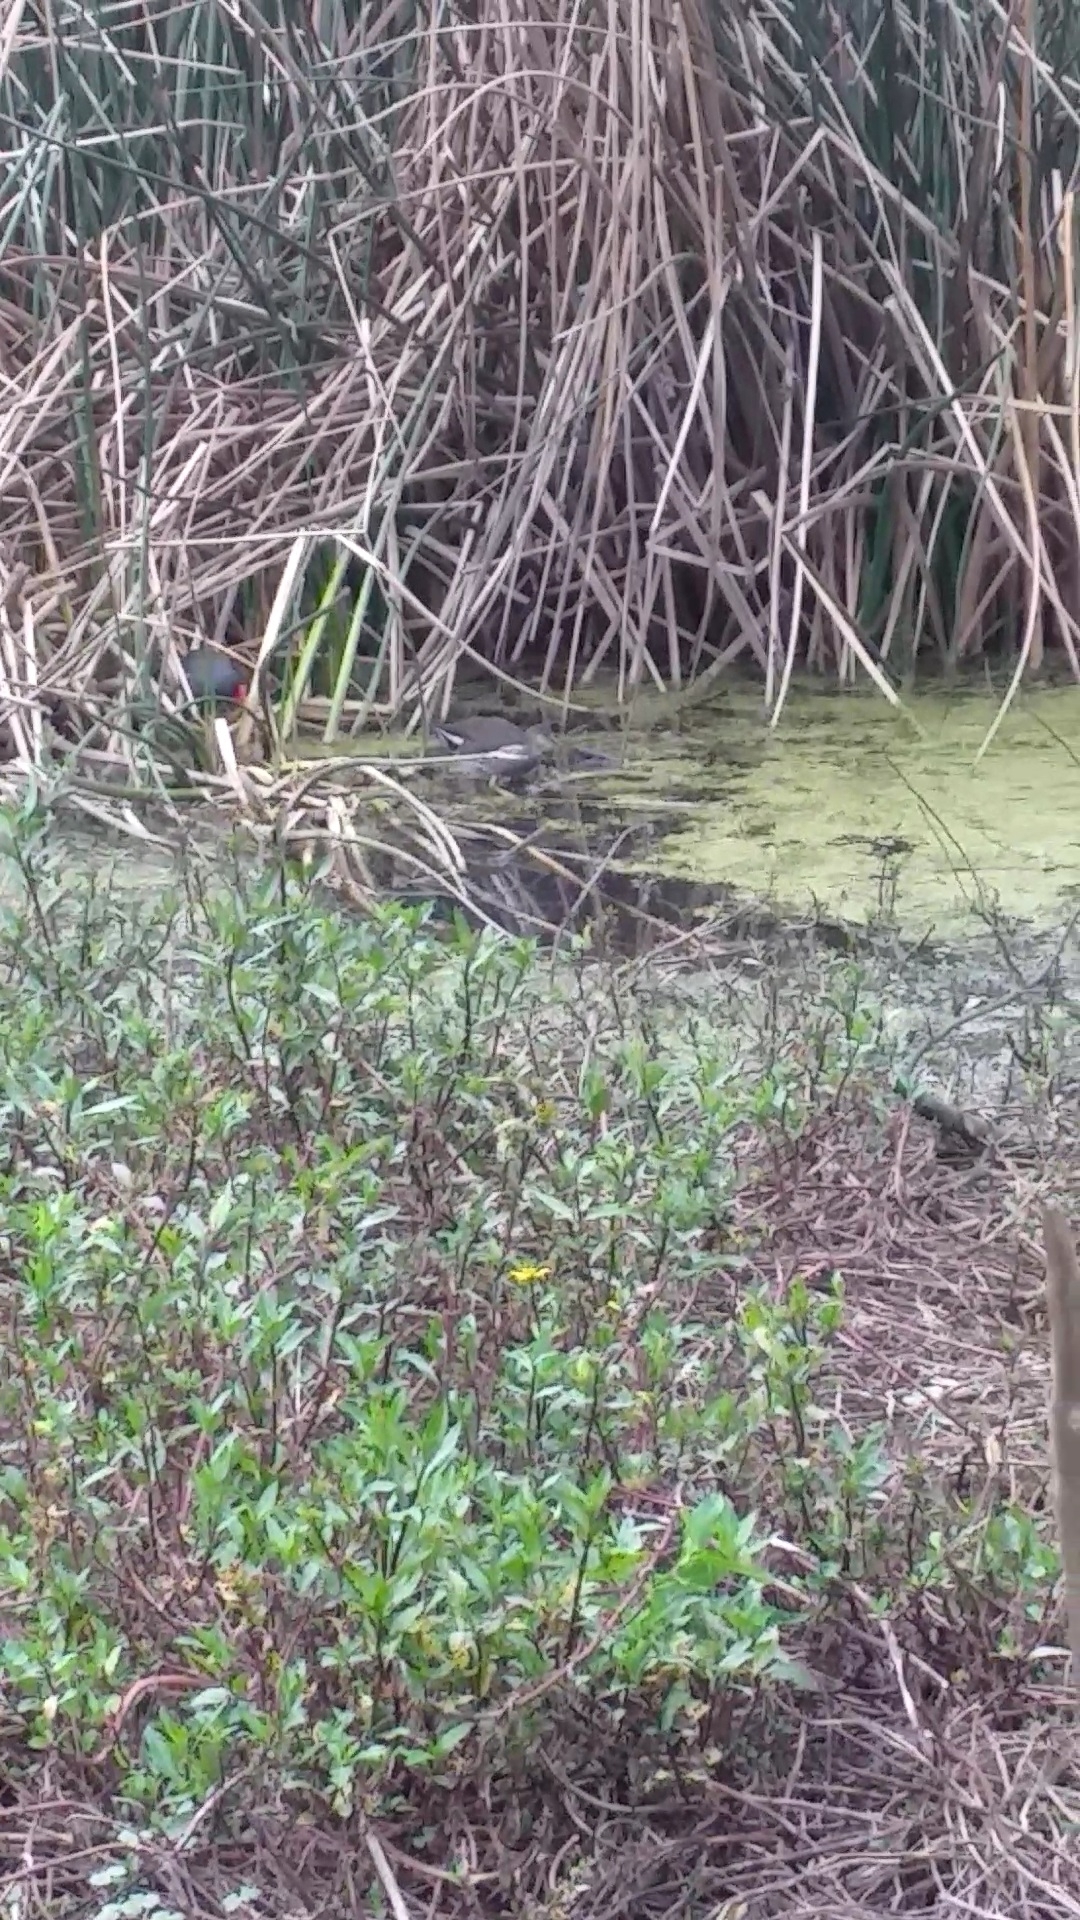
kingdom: Animalia
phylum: Chordata
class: Aves
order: Gruiformes
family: Rallidae
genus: Gallinula
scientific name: Gallinula chloropus
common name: Common moorhen
